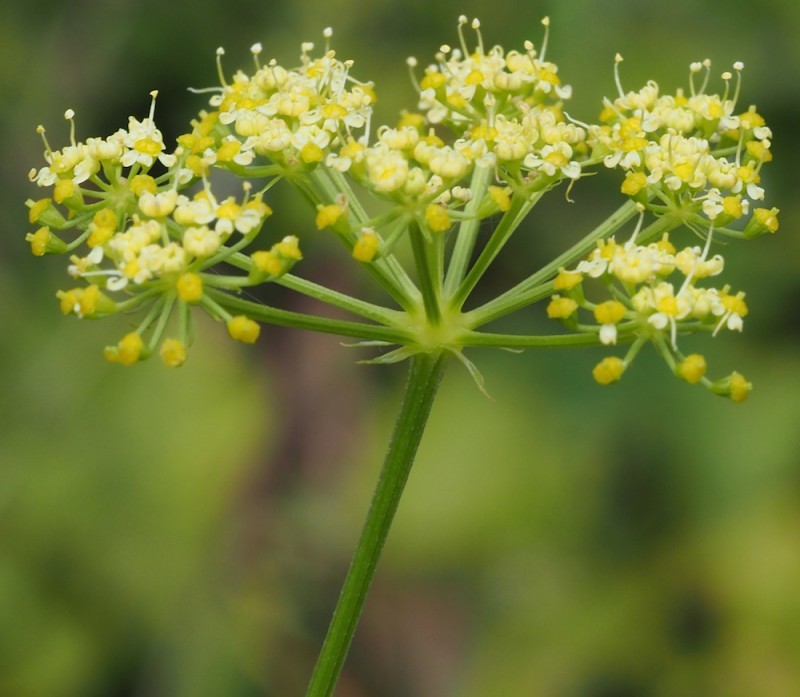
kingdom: Plantae
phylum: Tracheophyta
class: Magnoliopsida
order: Apiales
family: Apiaceae
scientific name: Apiaceae
